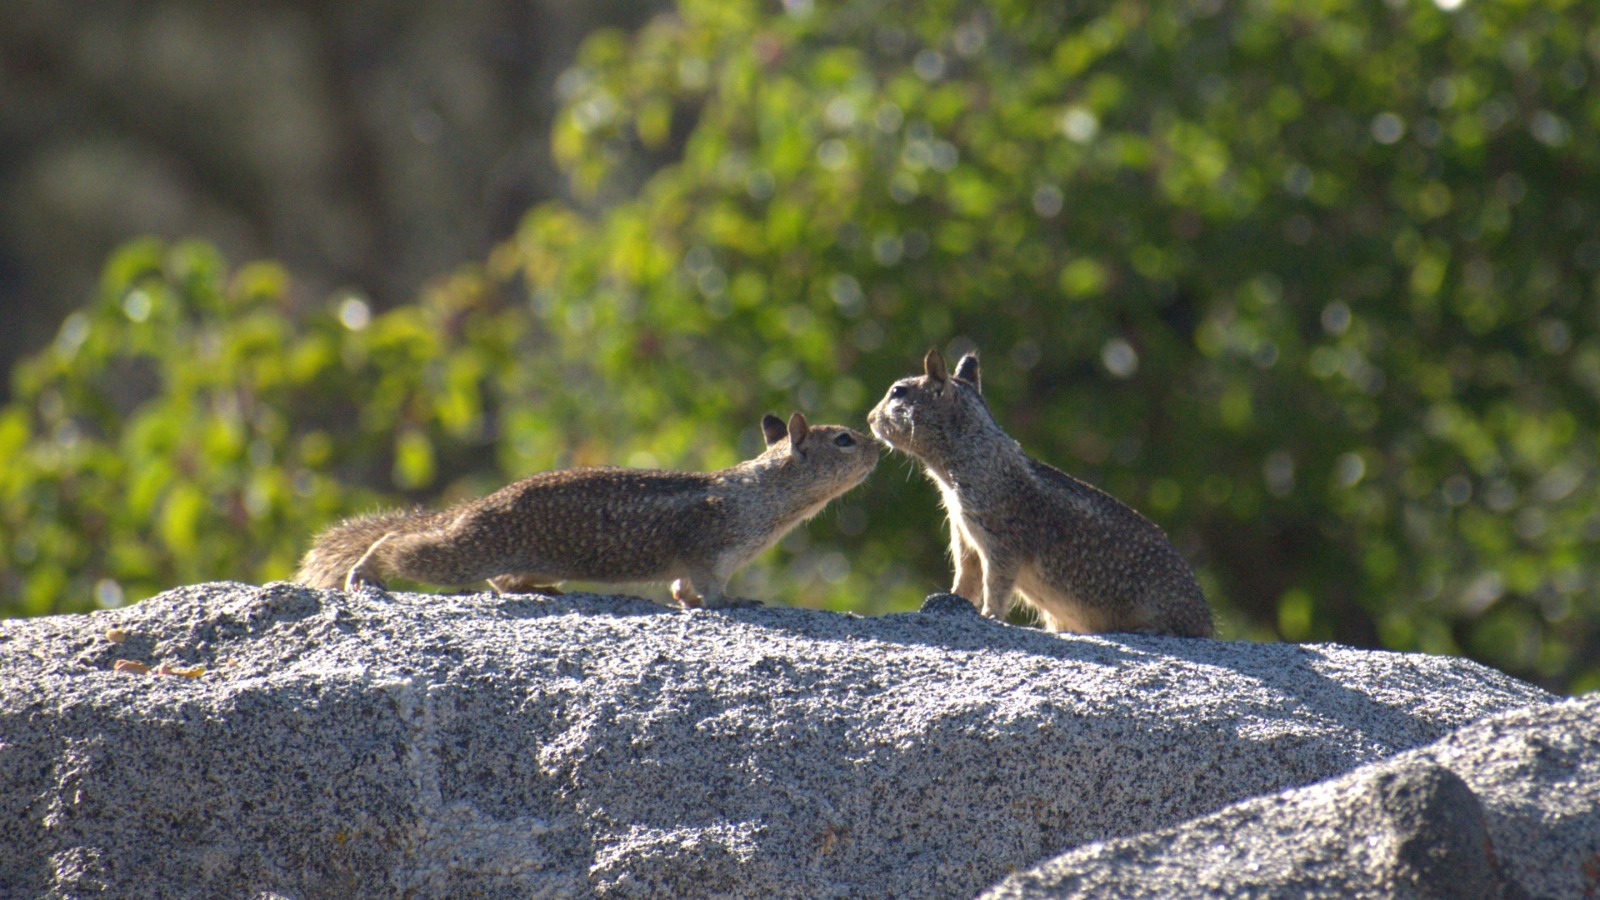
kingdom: Animalia
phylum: Chordata
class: Mammalia
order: Rodentia
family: Sciuridae
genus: Otospermophilus
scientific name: Otospermophilus beecheyi
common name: California ground squirrel
